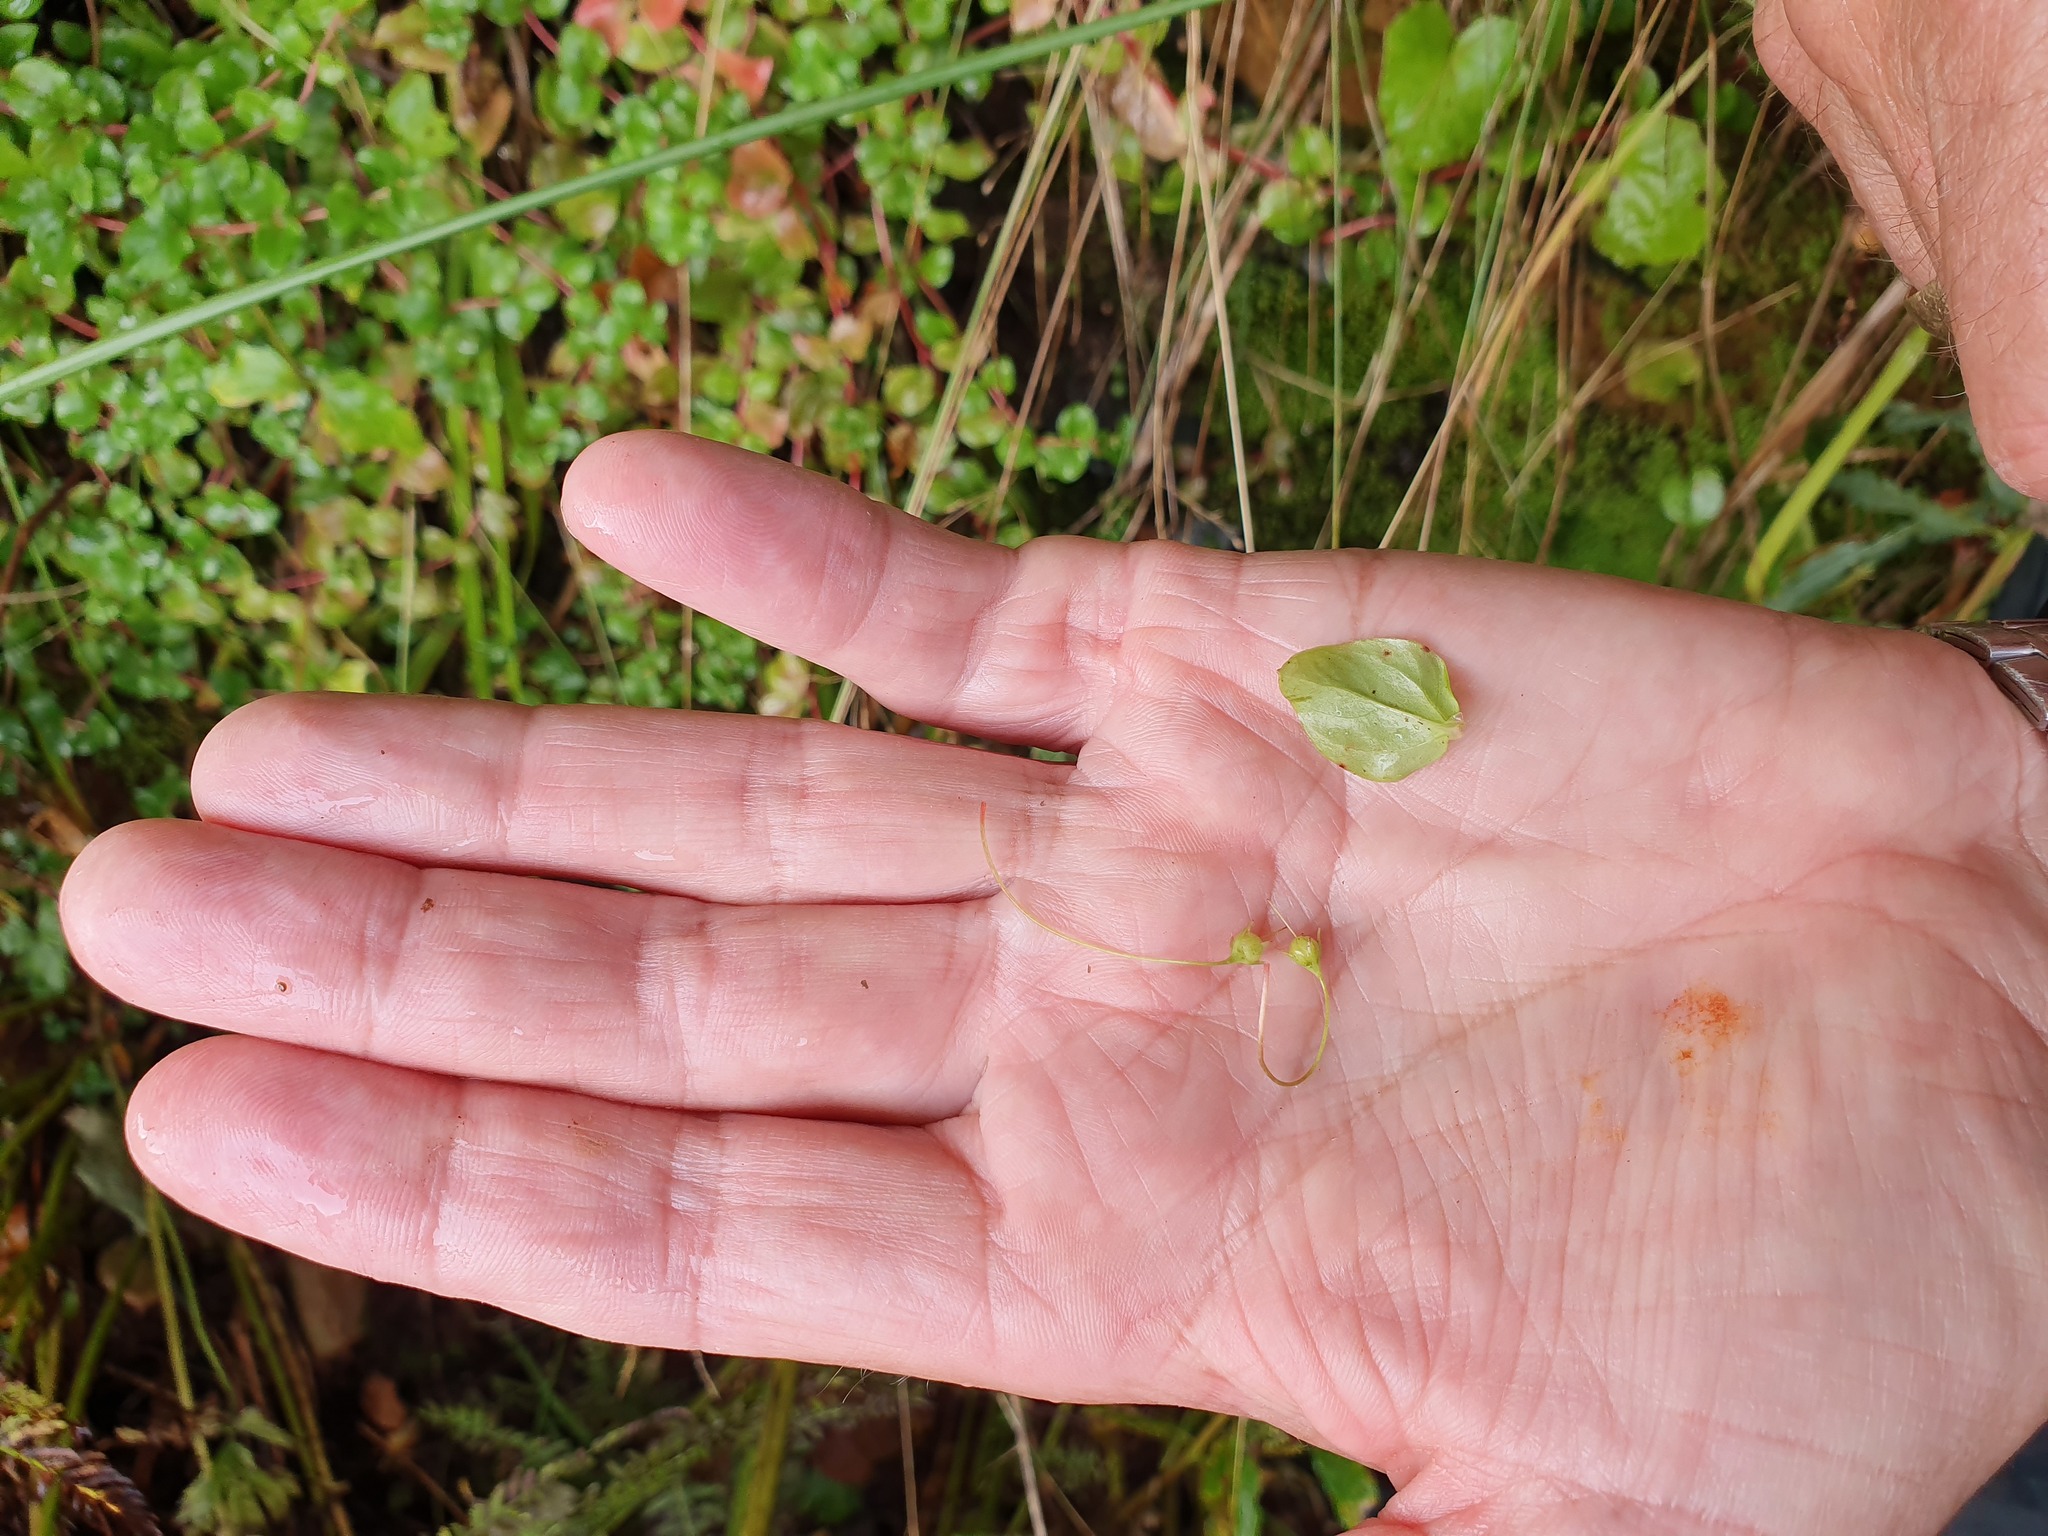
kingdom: Plantae
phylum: Tracheophyta
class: Magnoliopsida
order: Ericales
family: Primulaceae
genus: Lysimachia
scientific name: Lysimachia nemorum
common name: Yellow pimpernel
